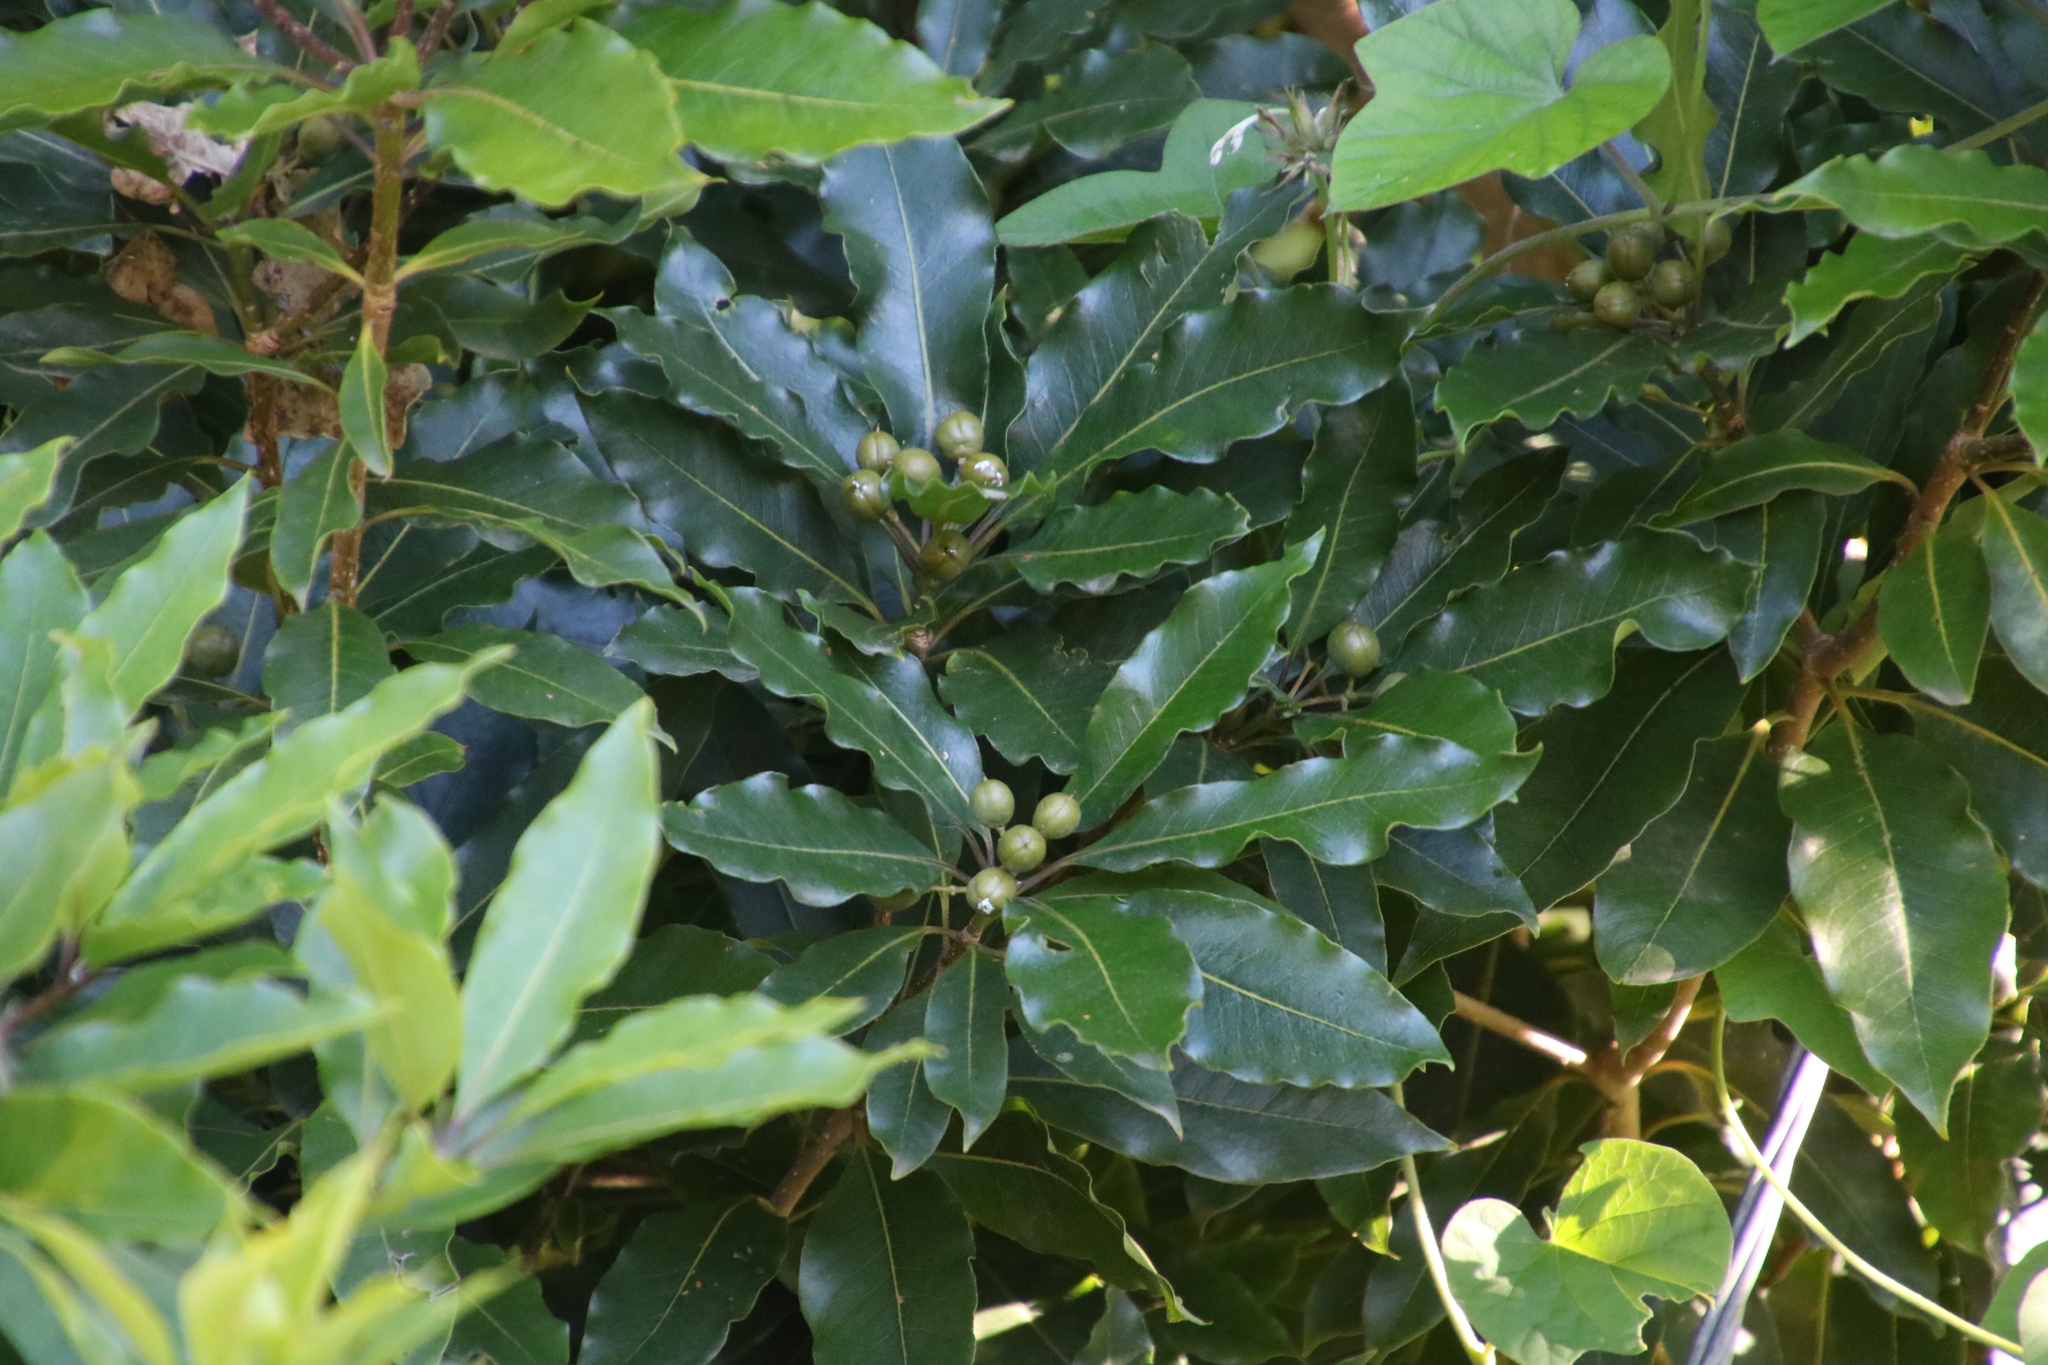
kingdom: Plantae
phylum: Tracheophyta
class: Magnoliopsida
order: Apiales
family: Pittosporaceae
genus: Pittosporum
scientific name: Pittosporum undulatum
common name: Australian cheesewood
